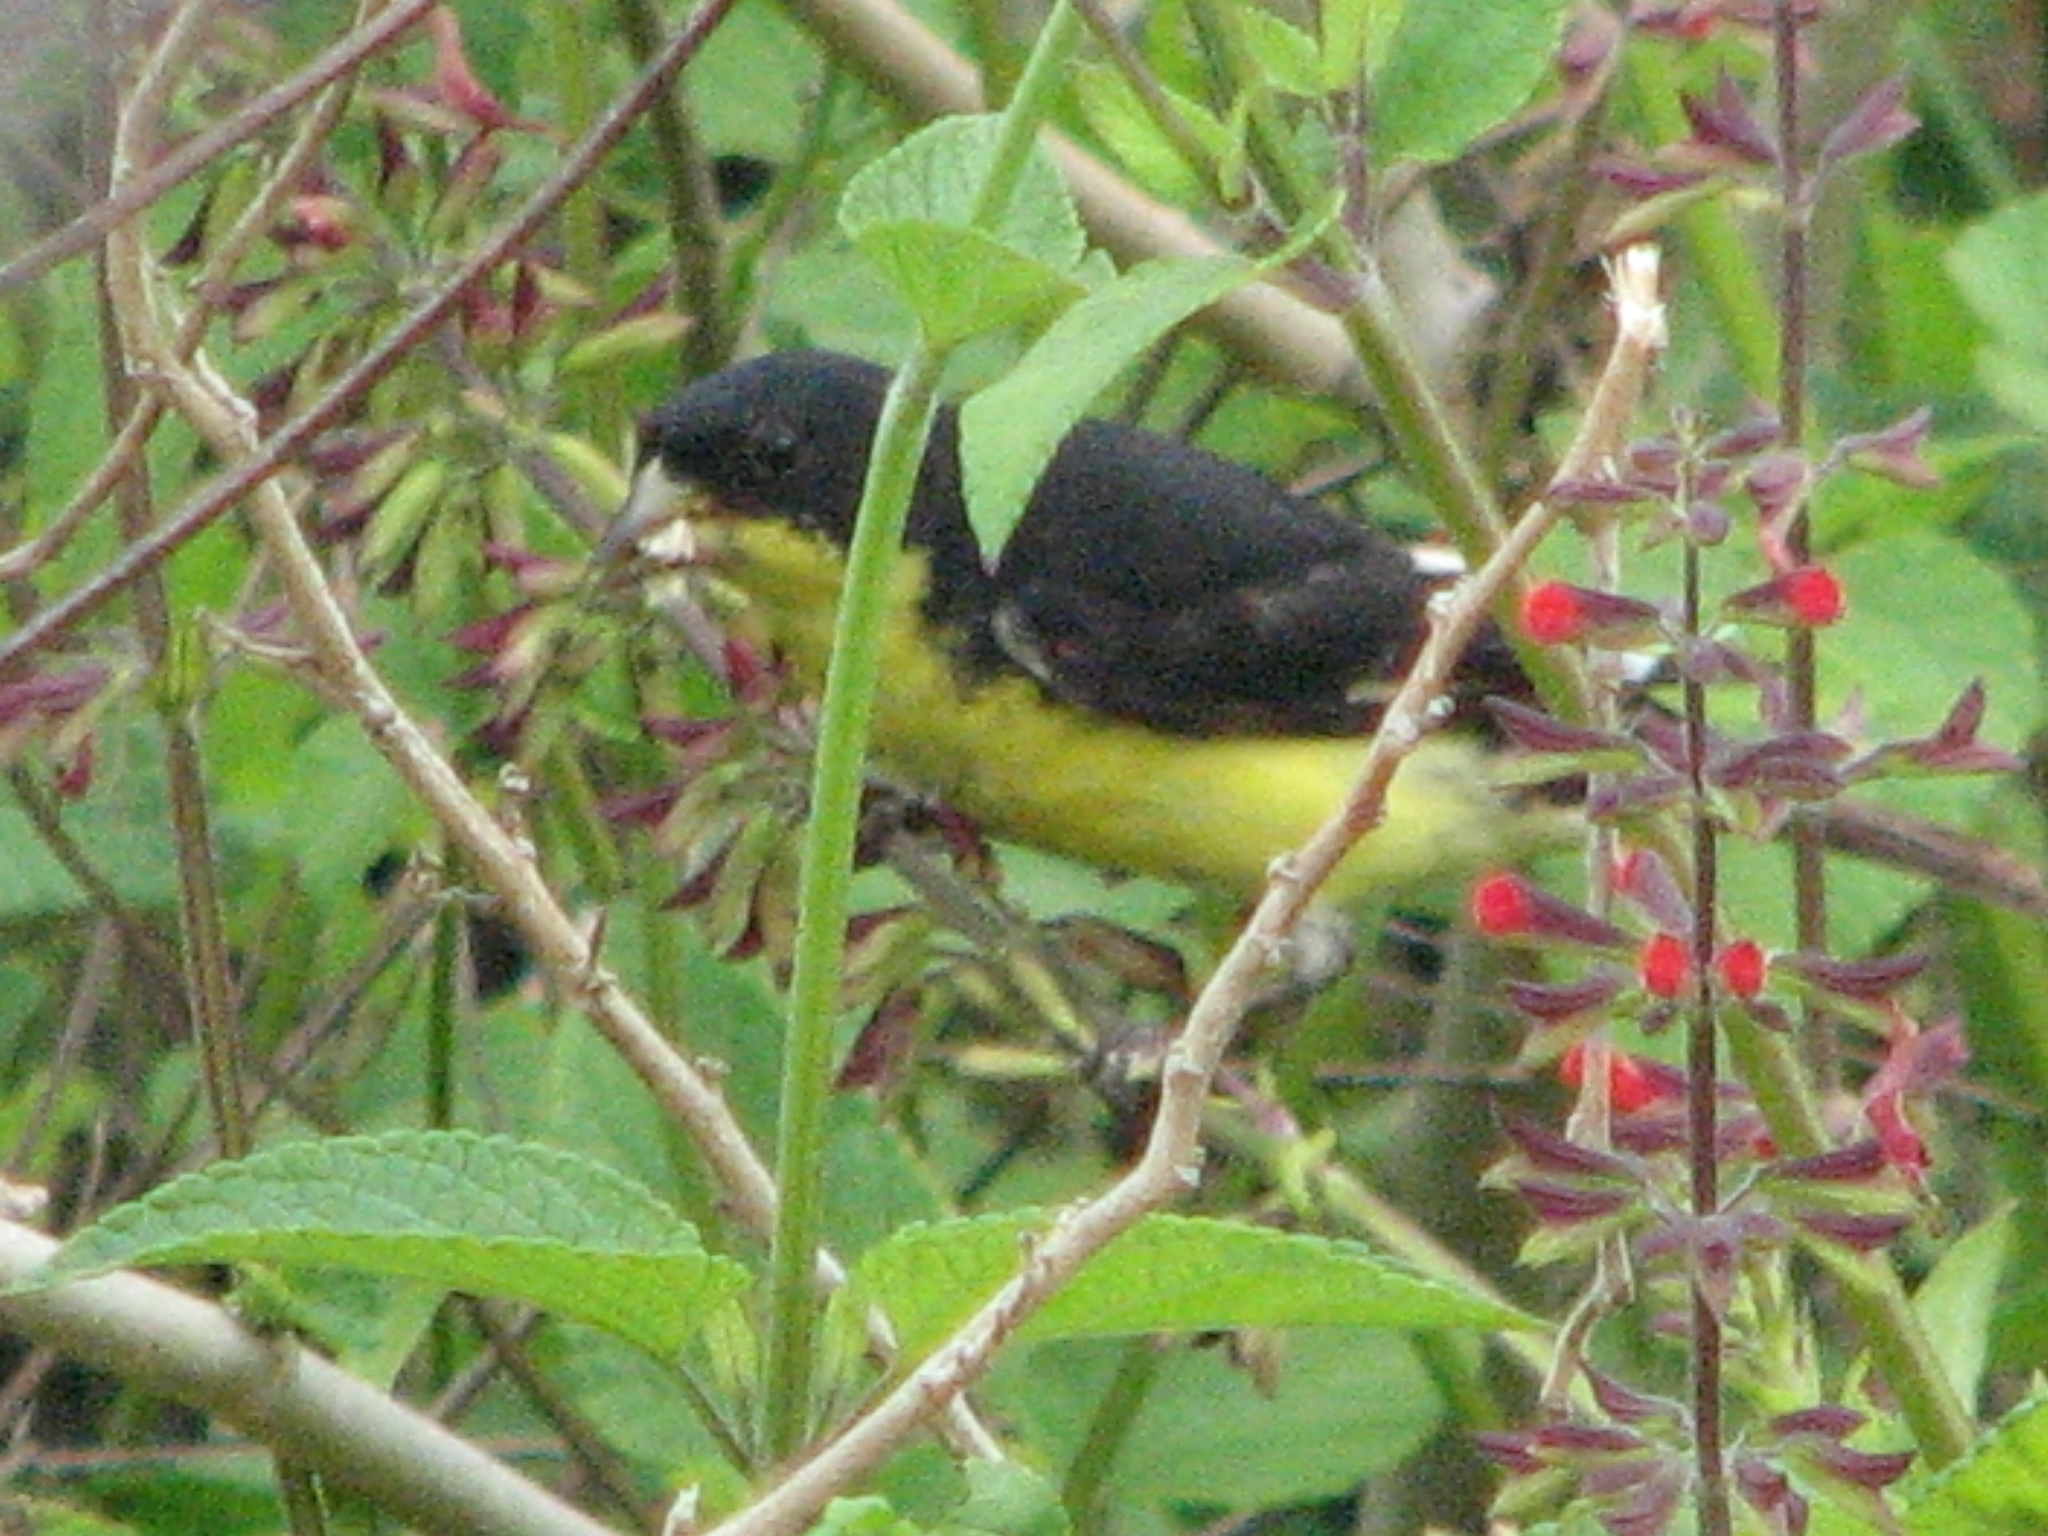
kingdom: Animalia
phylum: Chordata
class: Aves
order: Passeriformes
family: Fringillidae
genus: Spinus
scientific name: Spinus psaltria
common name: Lesser goldfinch
